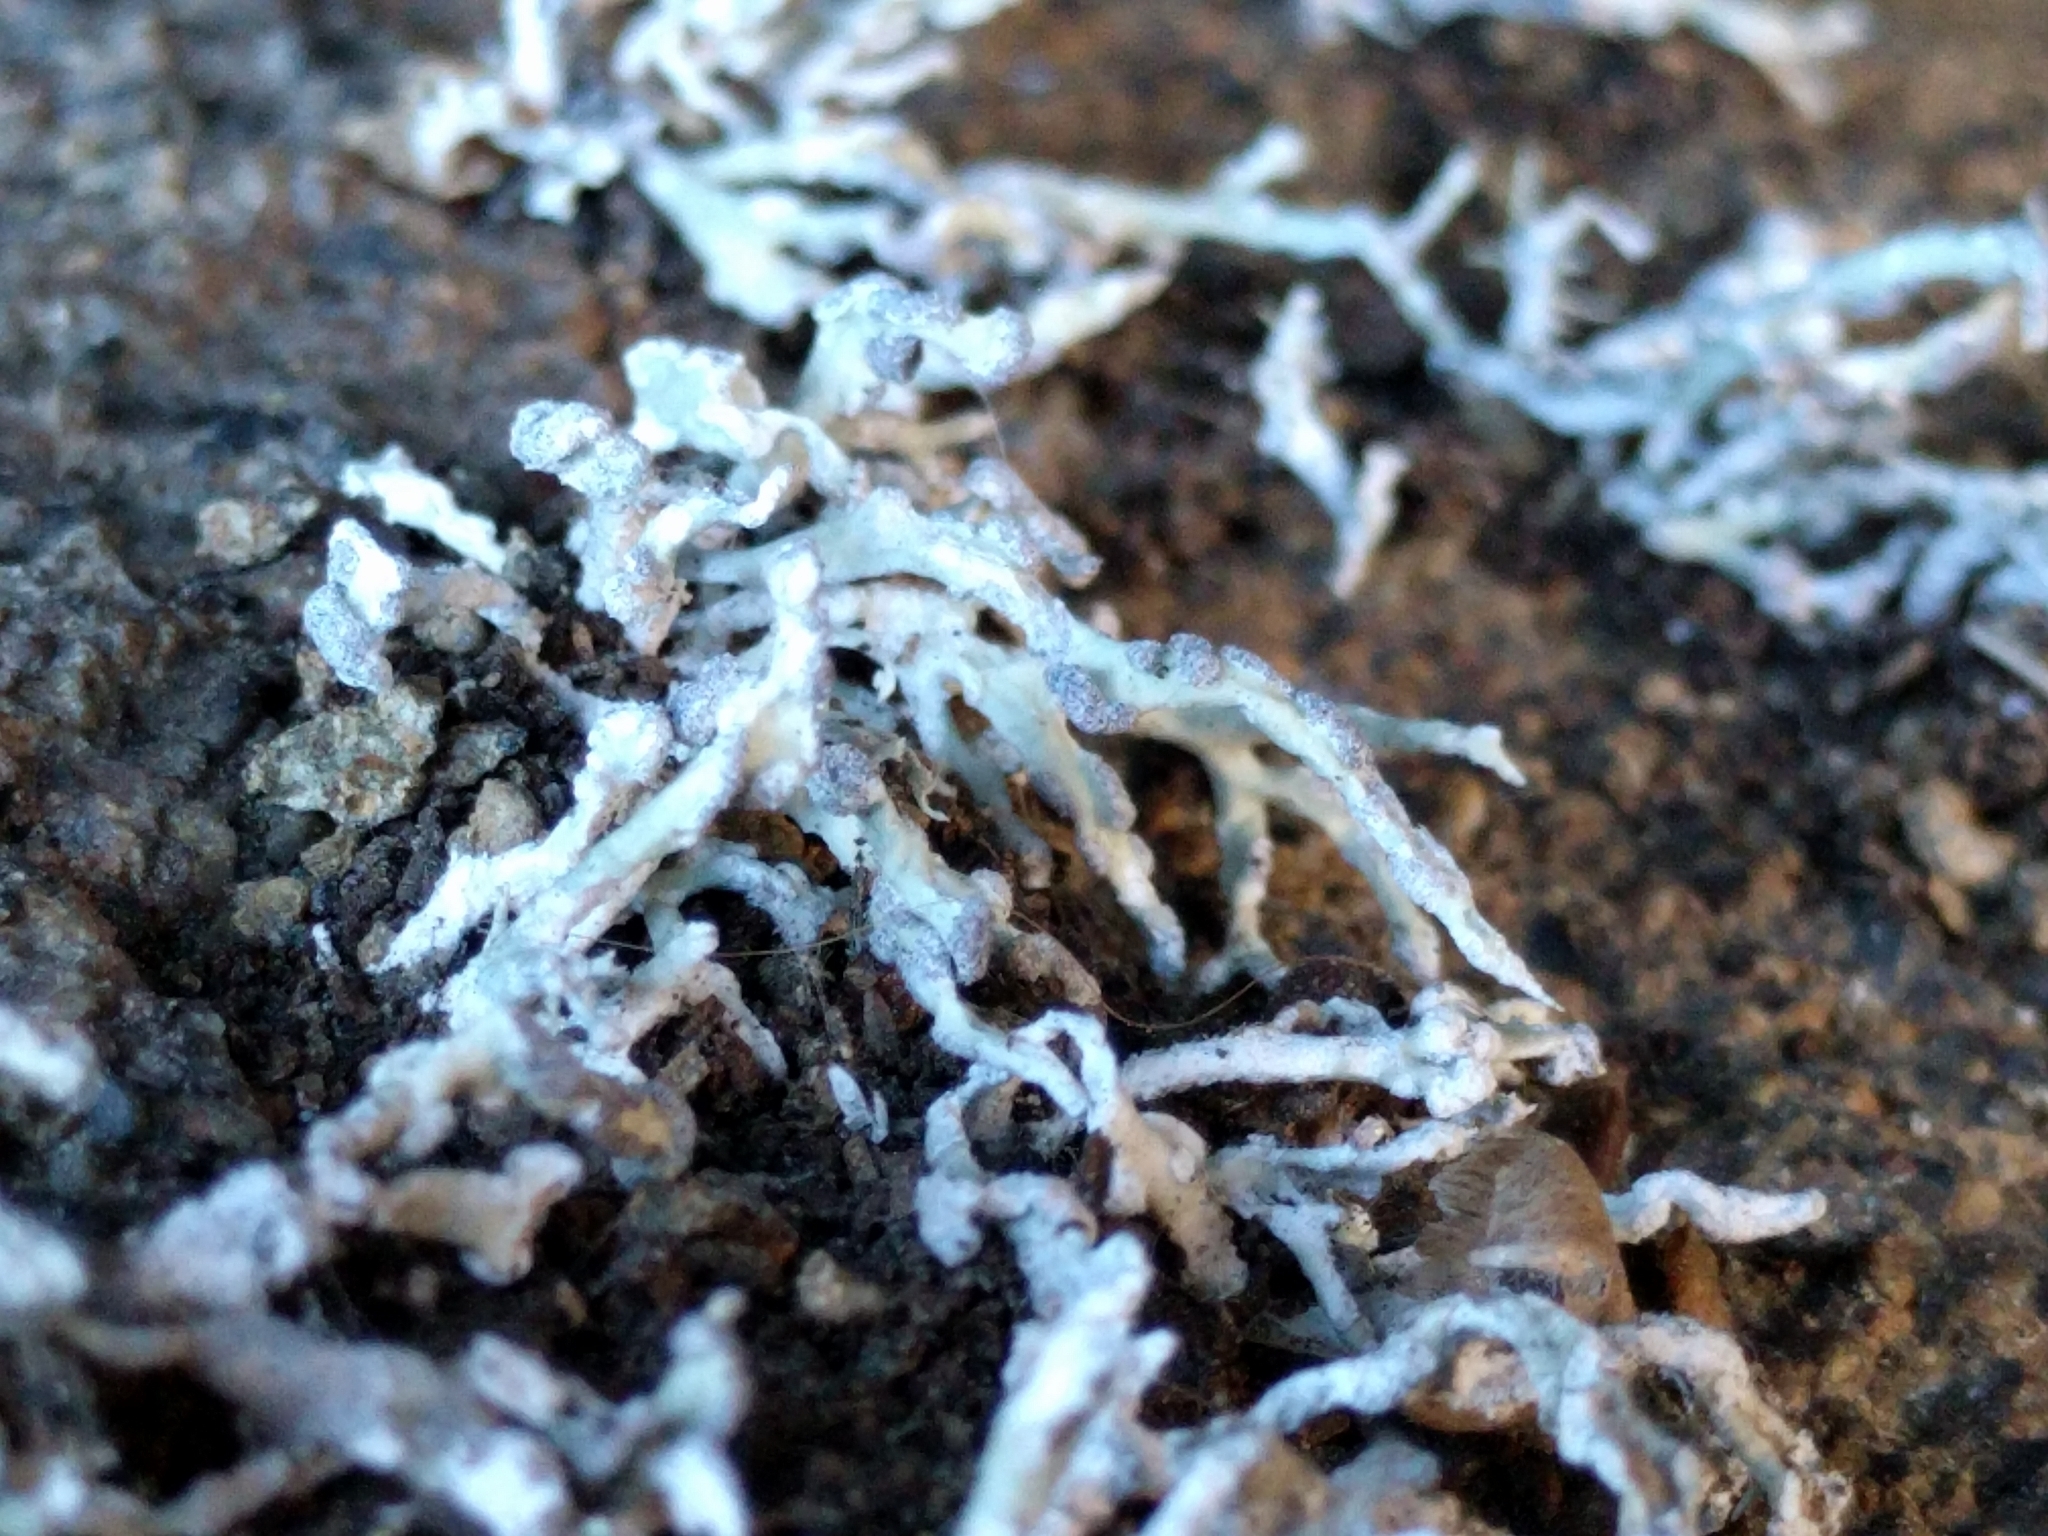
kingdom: Fungi
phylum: Ascomycota
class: Lecanoromycetes
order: Lecanorales
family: Ramalinaceae
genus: Niebla
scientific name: Niebla cephalota
